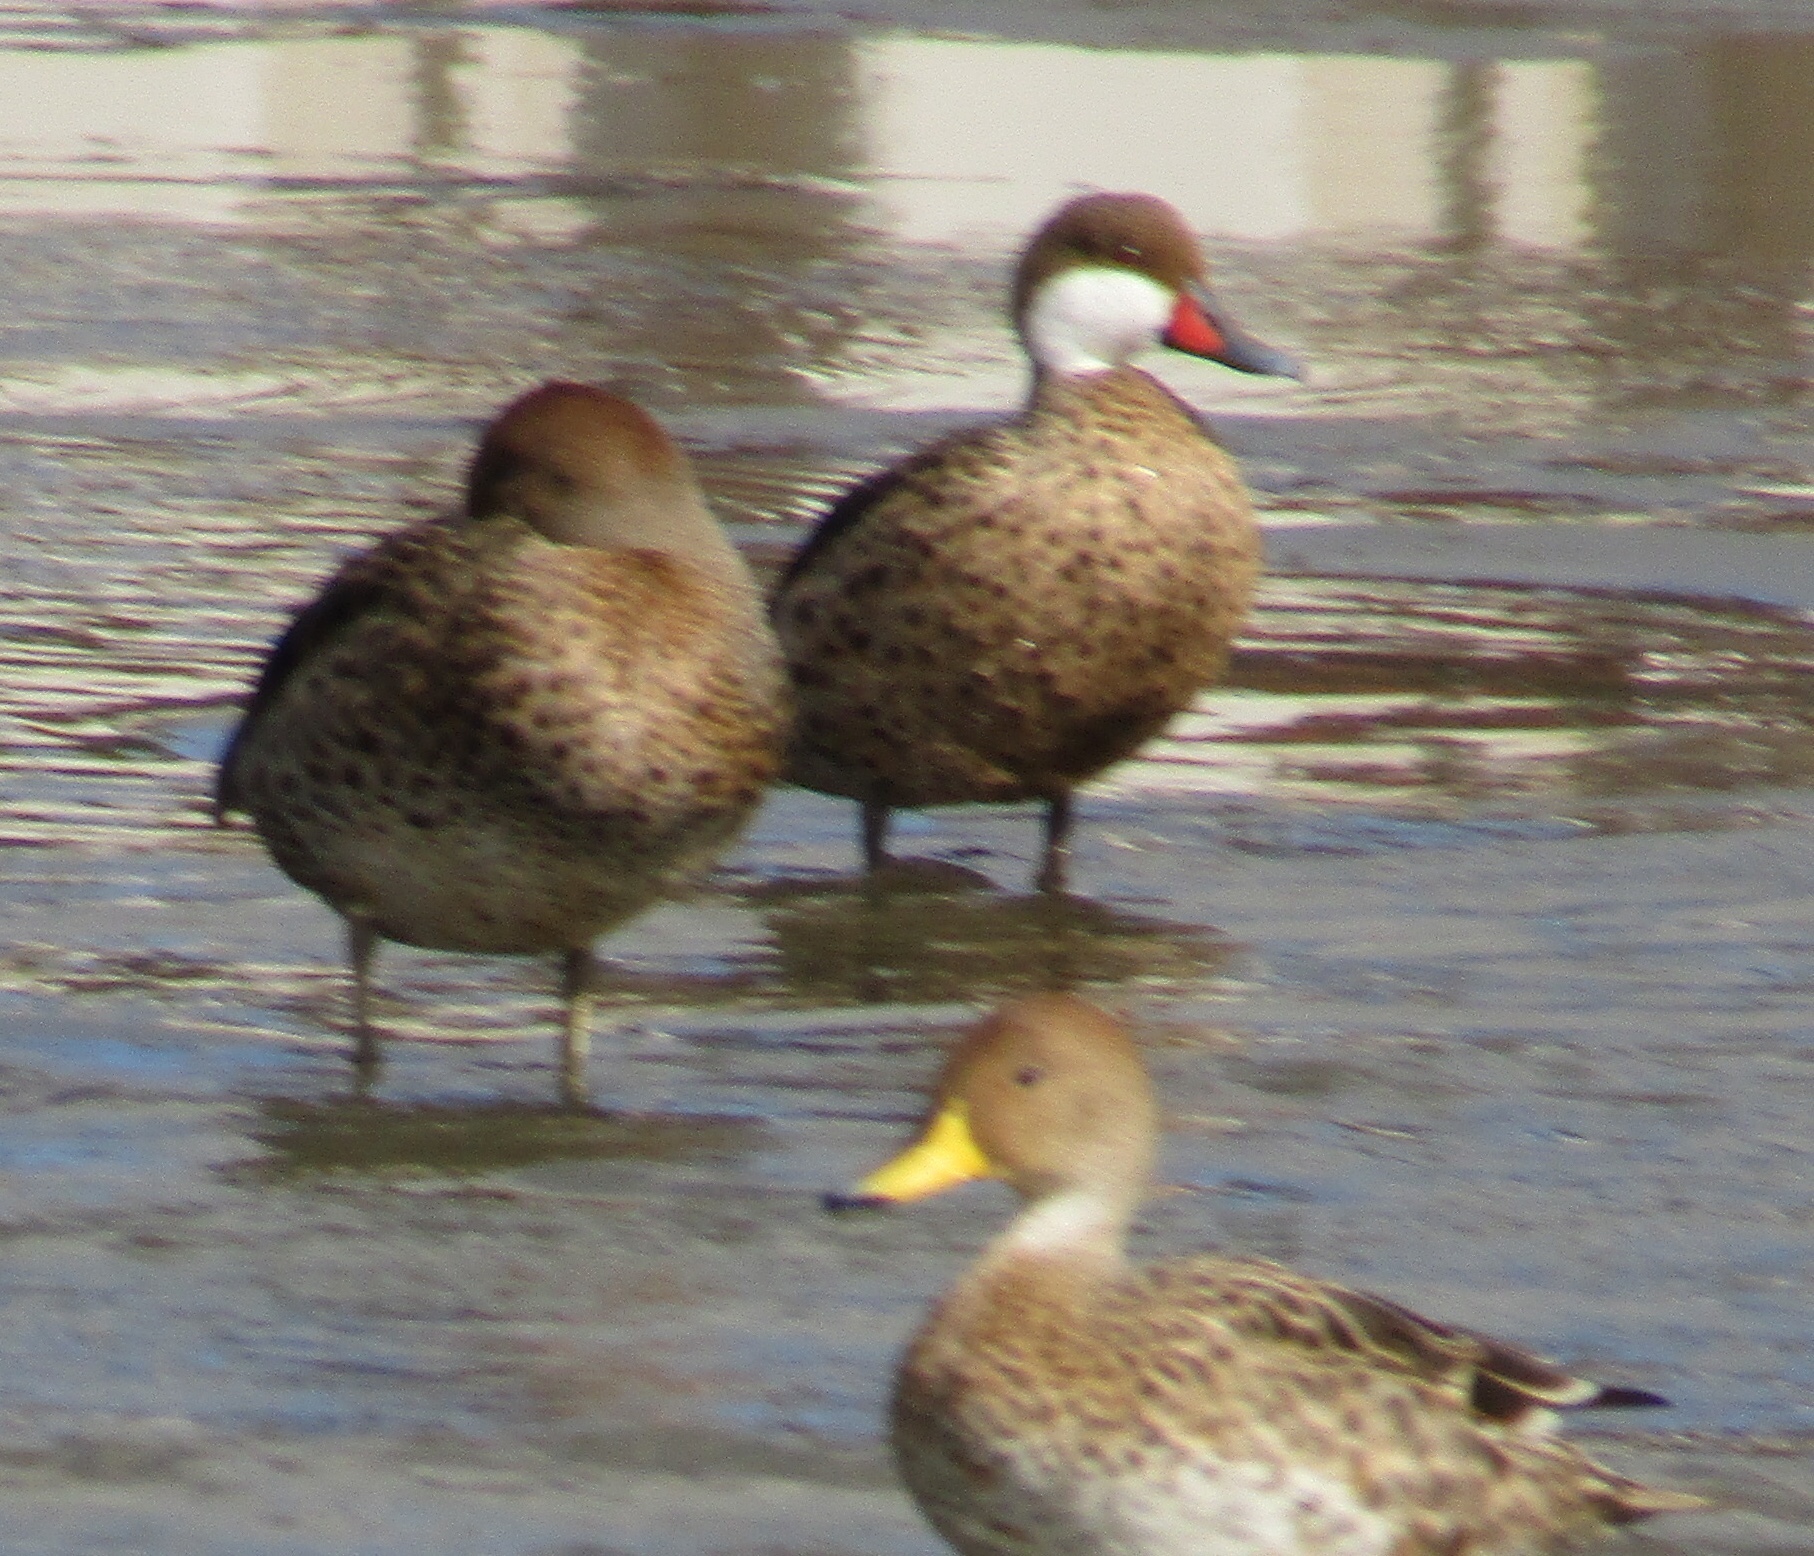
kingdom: Animalia
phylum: Chordata
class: Aves
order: Anseriformes
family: Anatidae
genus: Anas
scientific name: Anas bahamensis
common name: White-cheeked pintail
